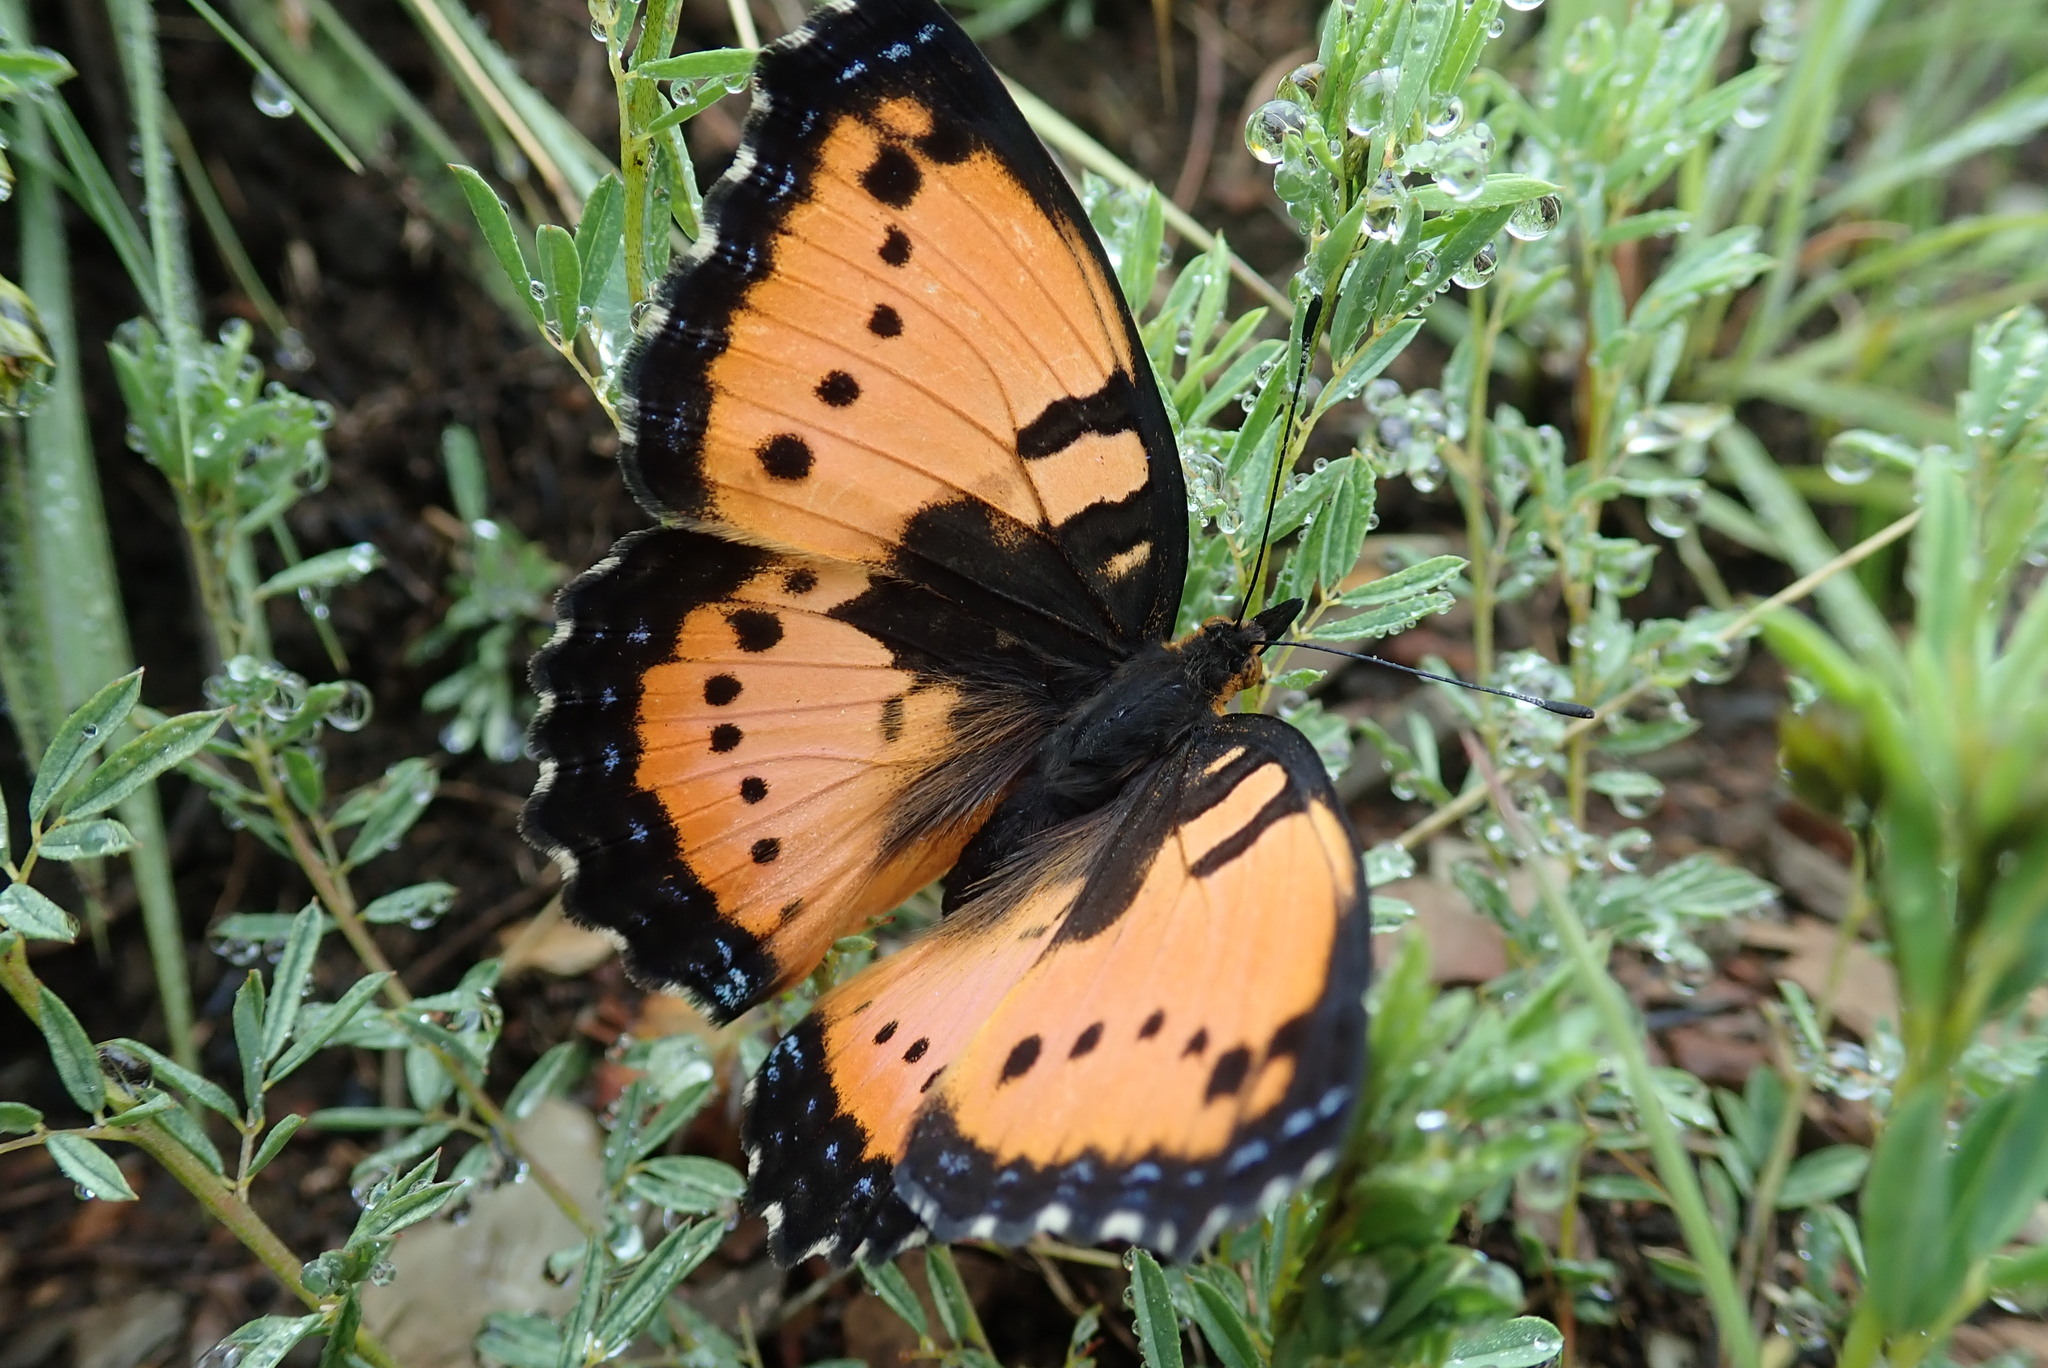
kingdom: Animalia
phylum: Arthropoda
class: Insecta
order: Lepidoptera
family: Nymphalidae
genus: Precis
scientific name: Precis octavia
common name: Gaudy commodore
